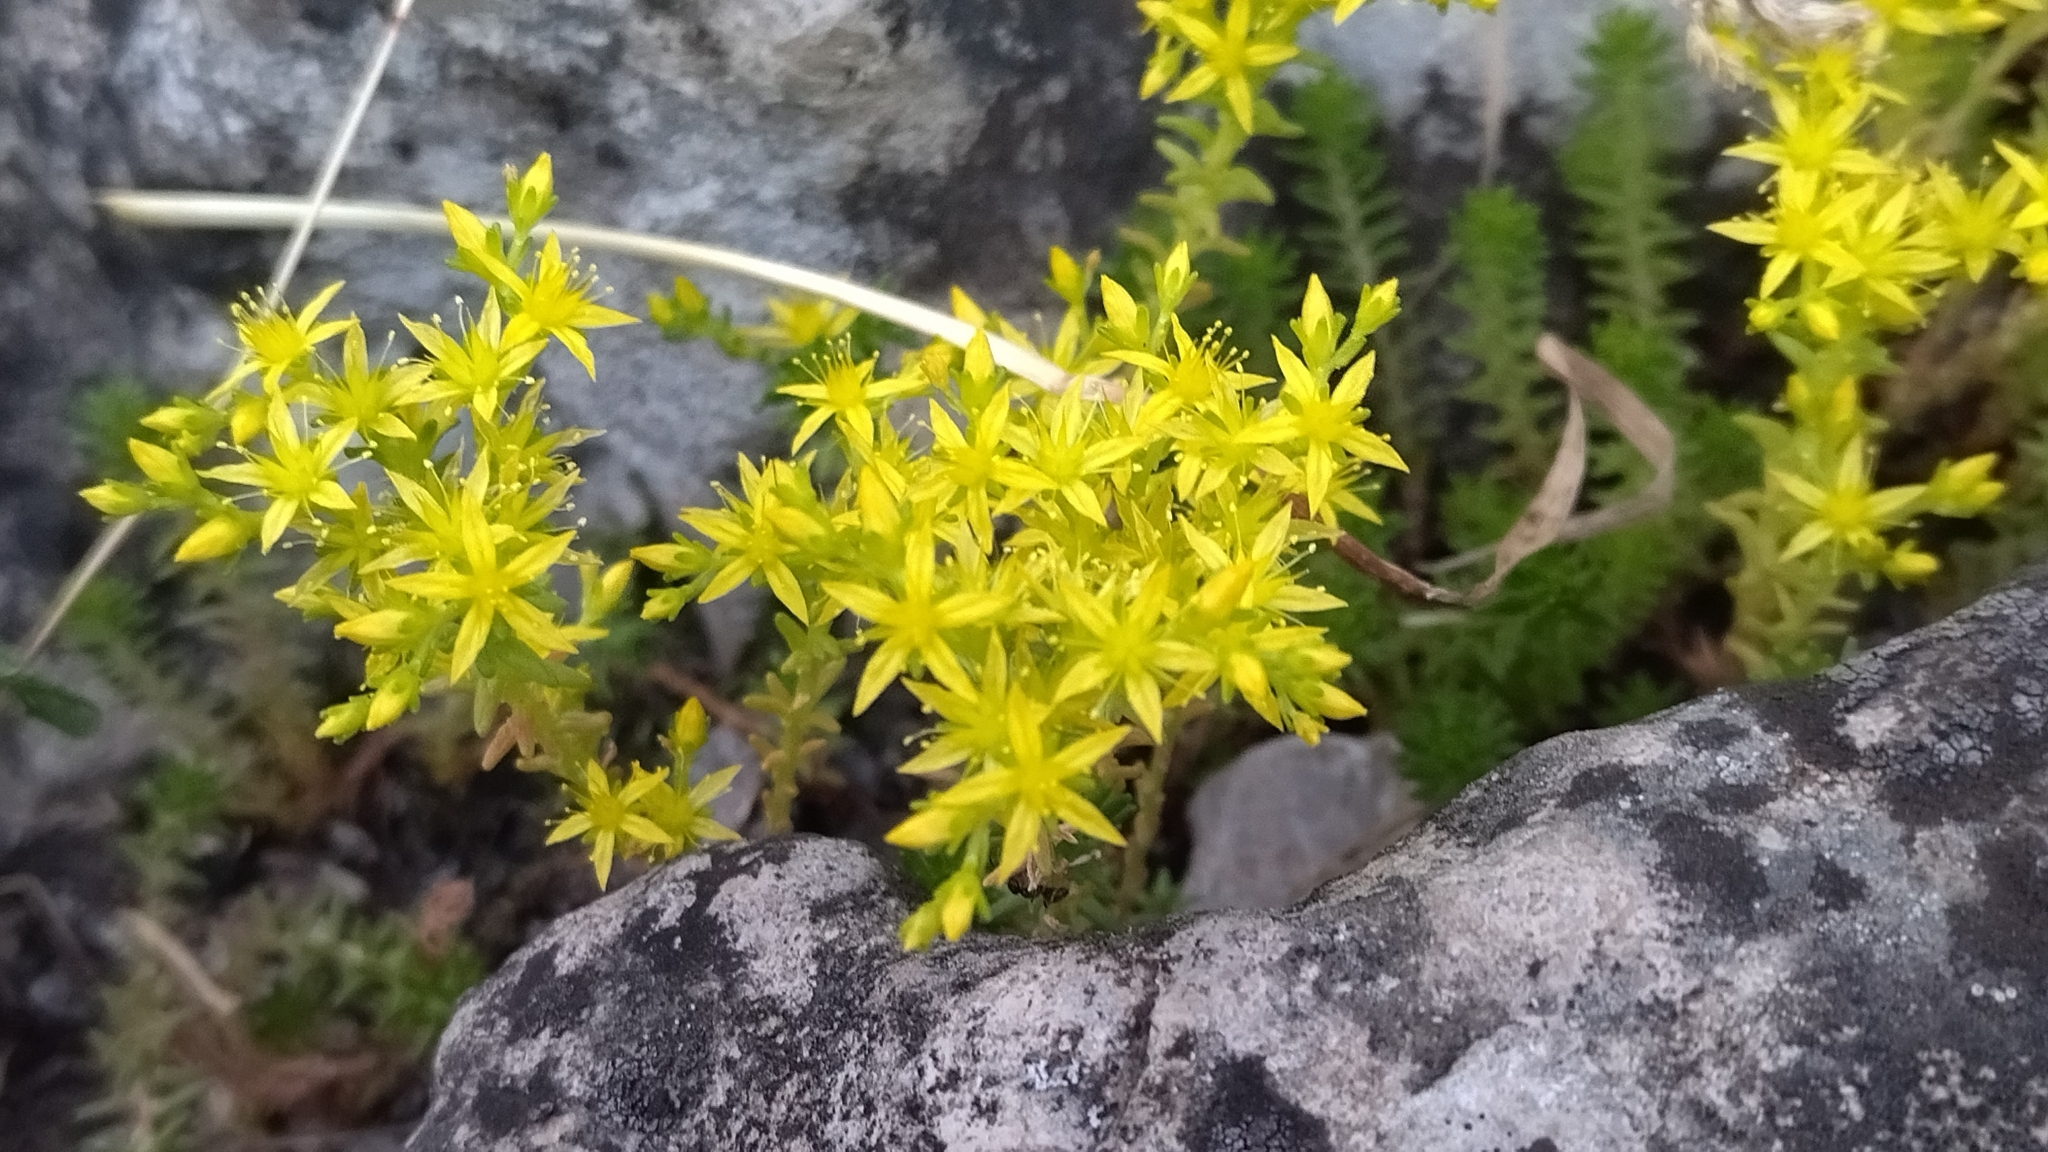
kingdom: Plantae
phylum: Tracheophyta
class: Magnoliopsida
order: Saxifragales
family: Crassulaceae
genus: Sedum
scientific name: Sedum sexangulare
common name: Tasteless stonecrop
